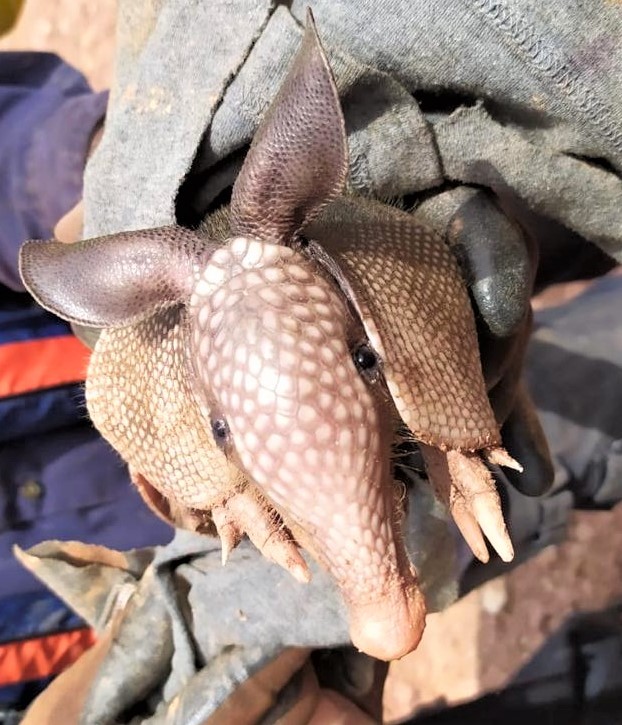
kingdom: Animalia
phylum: Chordata
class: Mammalia
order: Cingulata
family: Dasypodidae
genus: Dasypus
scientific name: Dasypus novemcinctus
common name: Nine-banded armadillo
